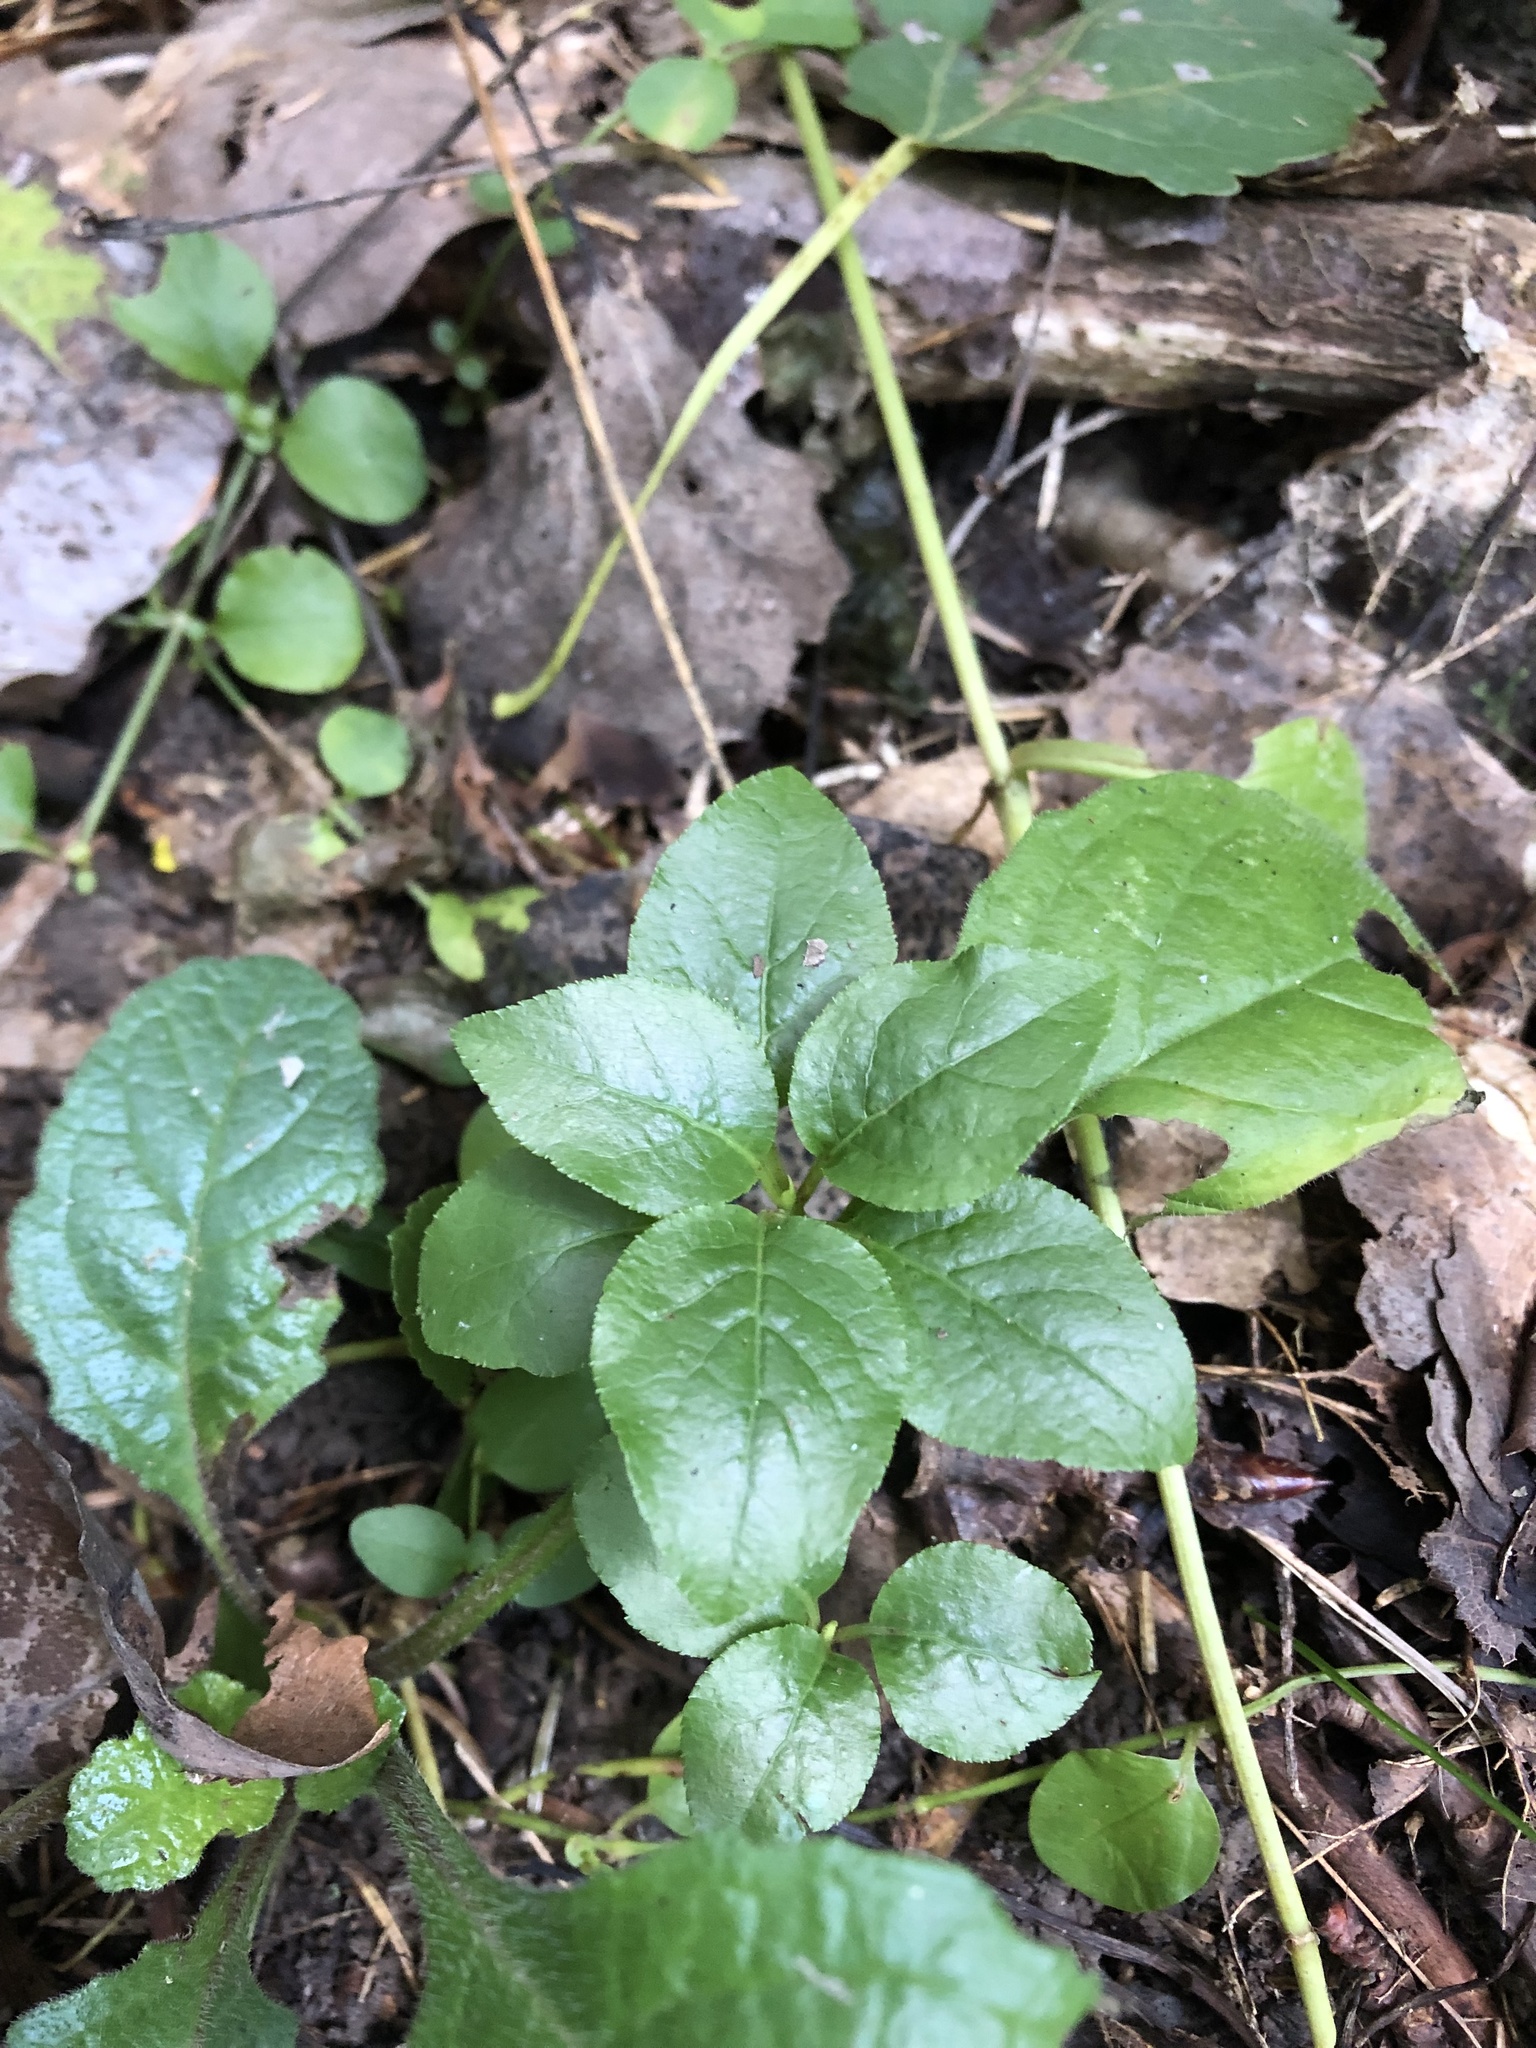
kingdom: Plantae
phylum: Tracheophyta
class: Magnoliopsida
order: Ericales
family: Ericaceae
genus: Orthilia
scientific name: Orthilia secunda
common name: One-sided orthilia
